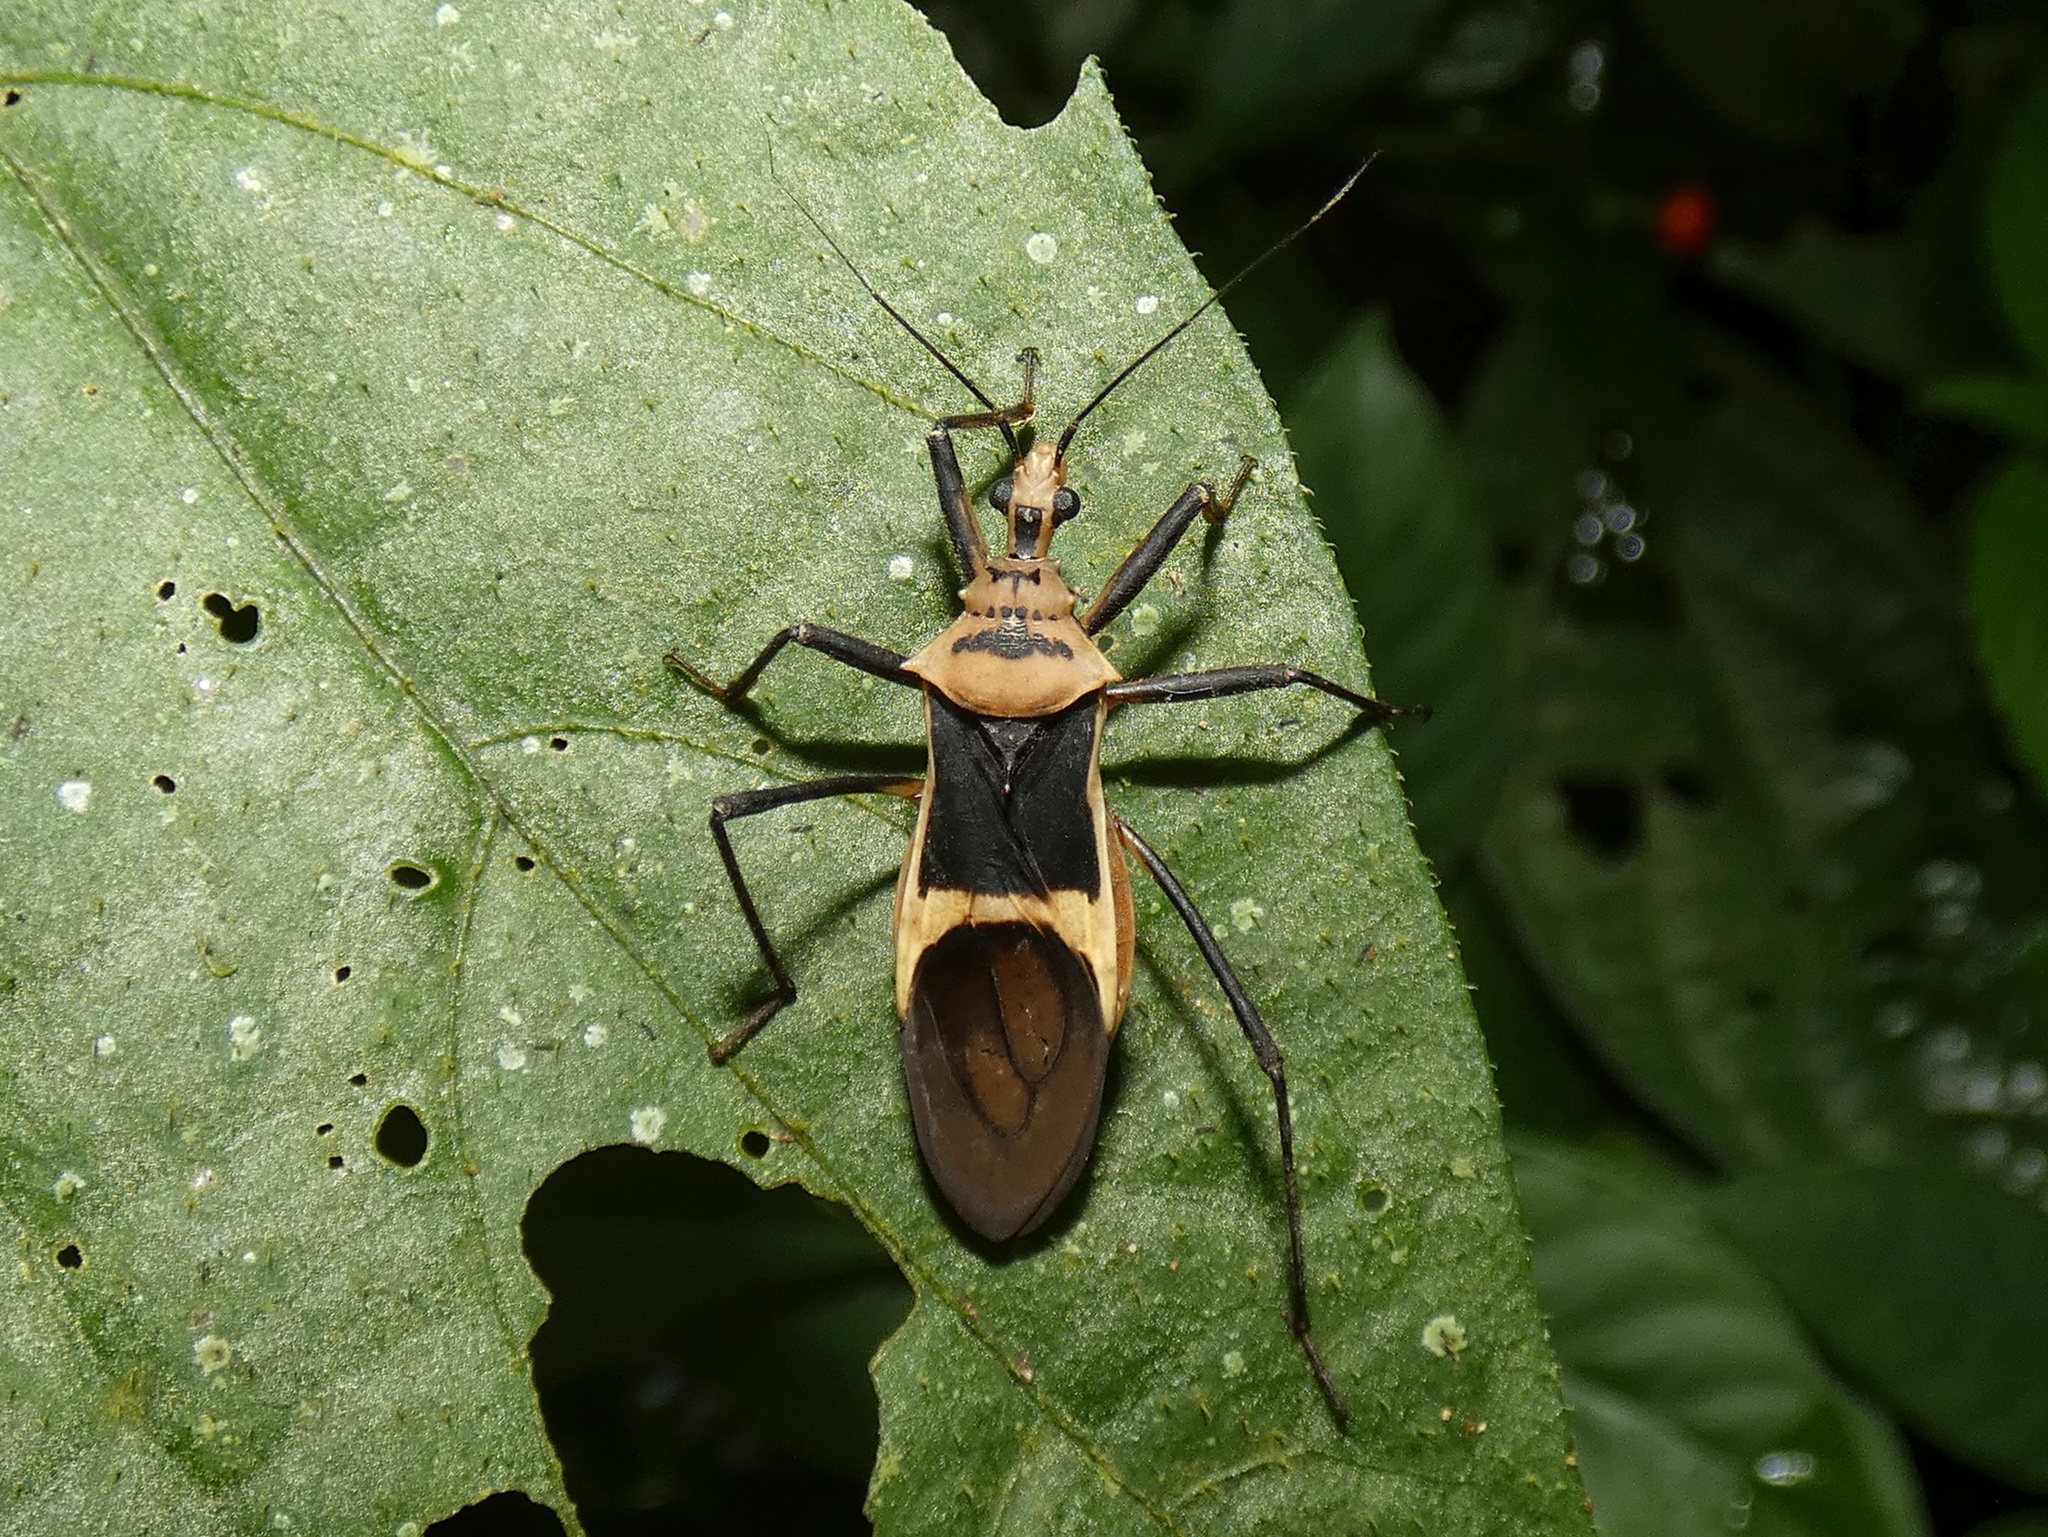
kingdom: Animalia
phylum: Arthropoda
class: Insecta
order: Hemiptera
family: Reduviidae
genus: Zelurus
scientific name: Zelurus circumcinctus
